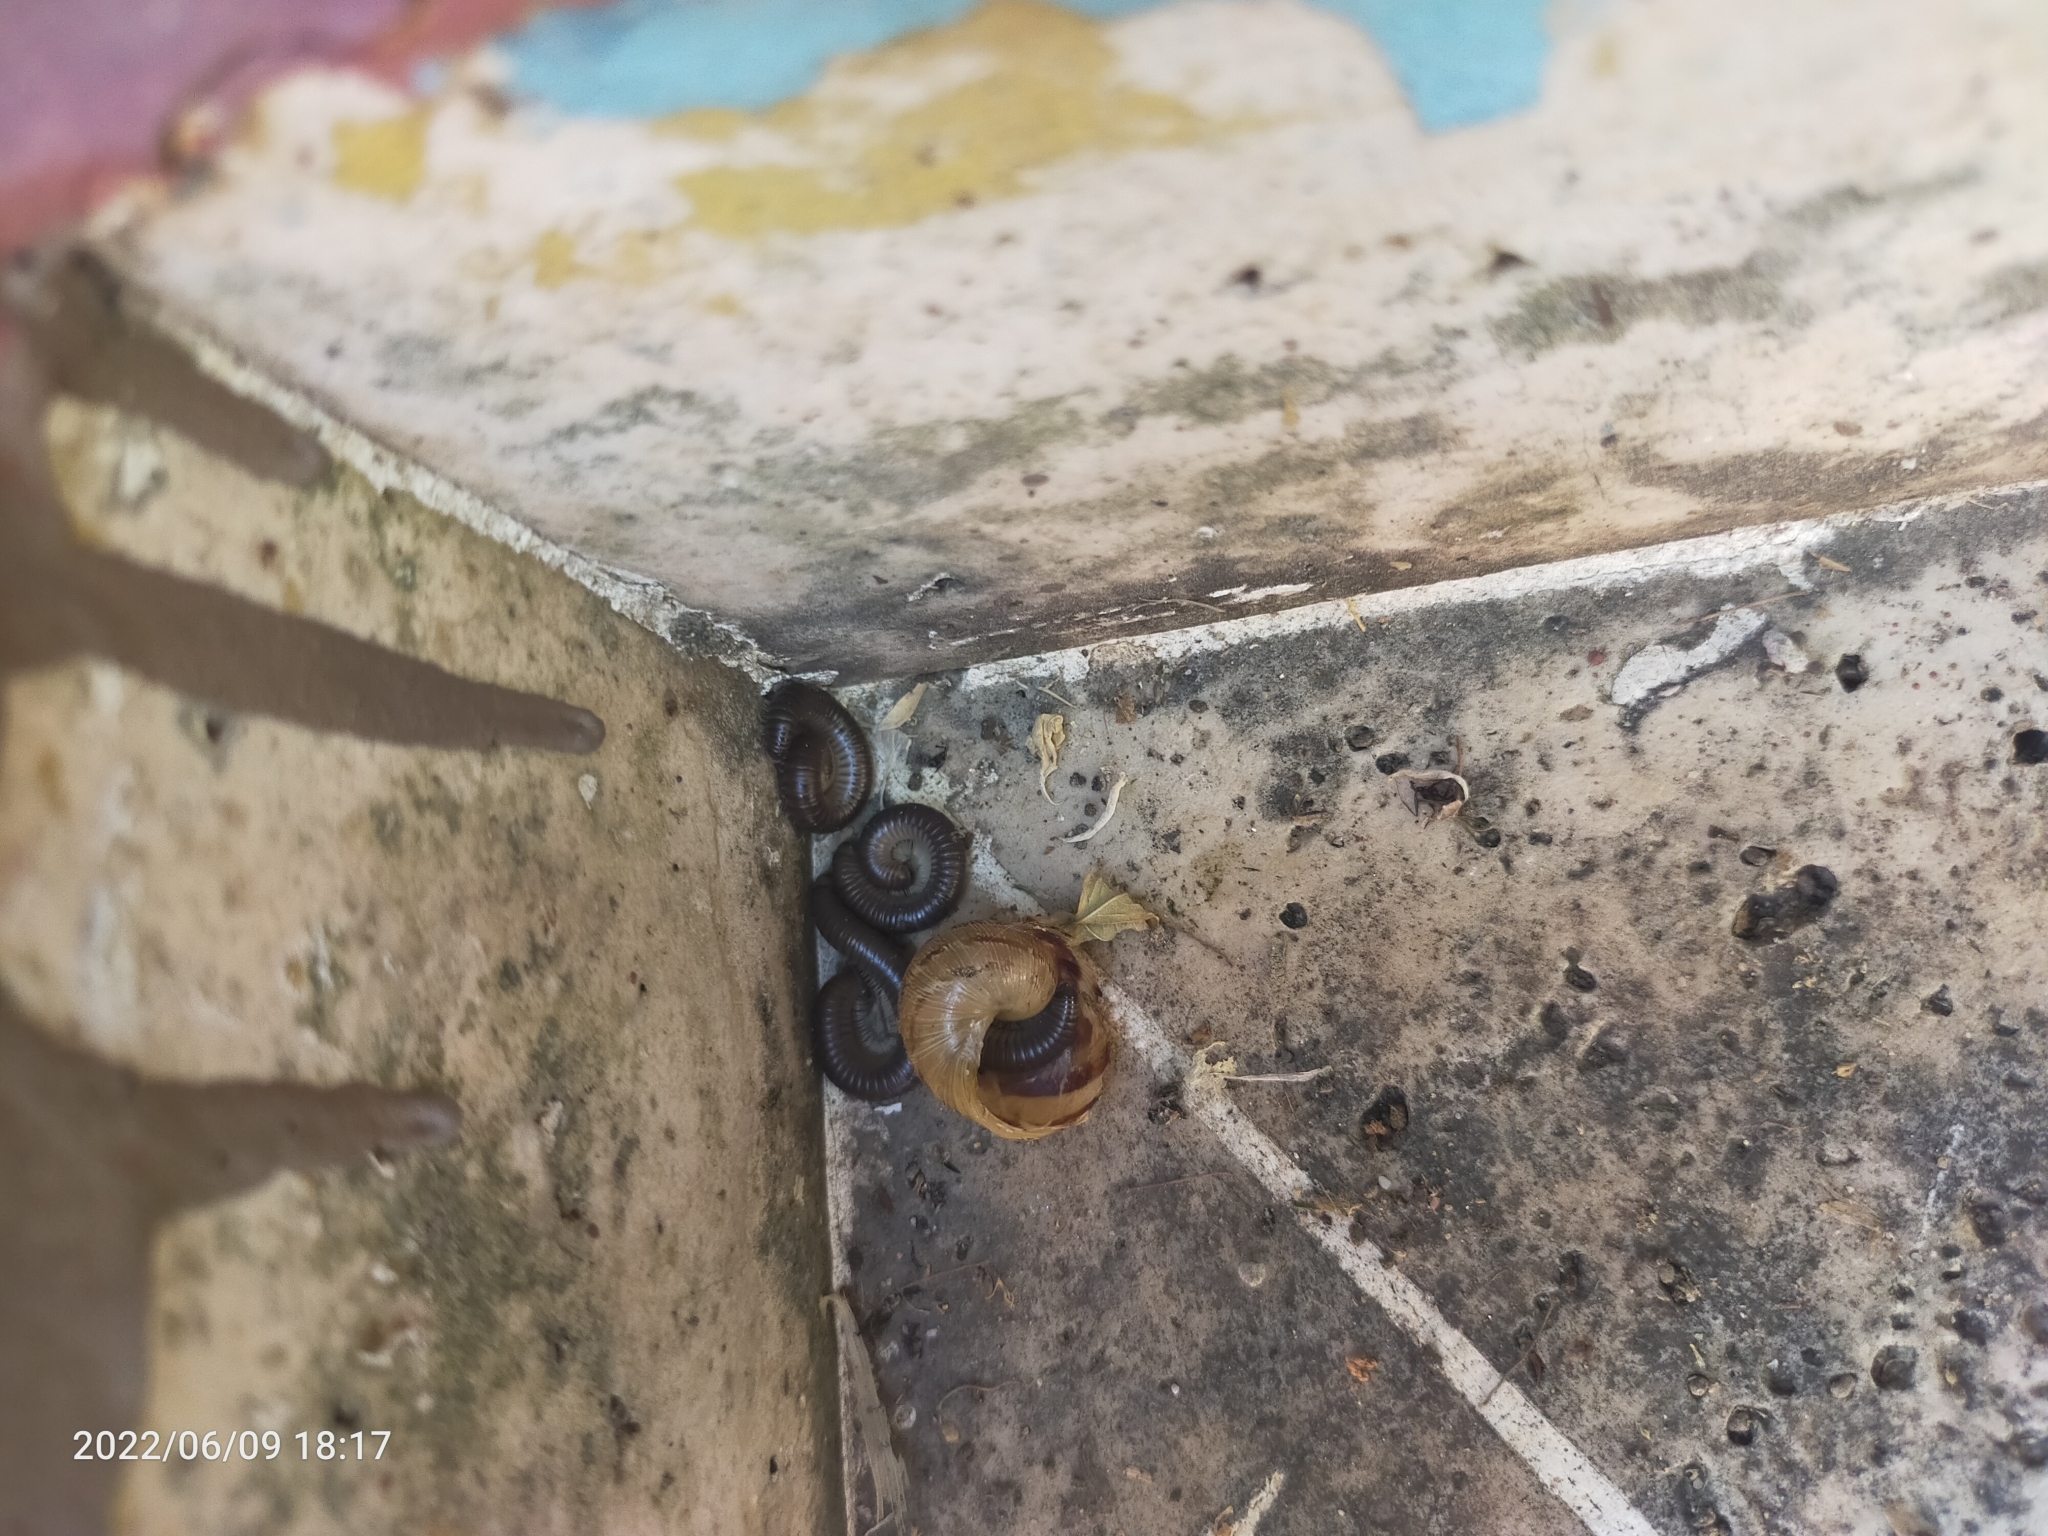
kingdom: Animalia
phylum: Arthropoda
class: Diplopoda
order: Julida
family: Julidae
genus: Pachyiulus
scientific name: Pachyiulus flavipes
